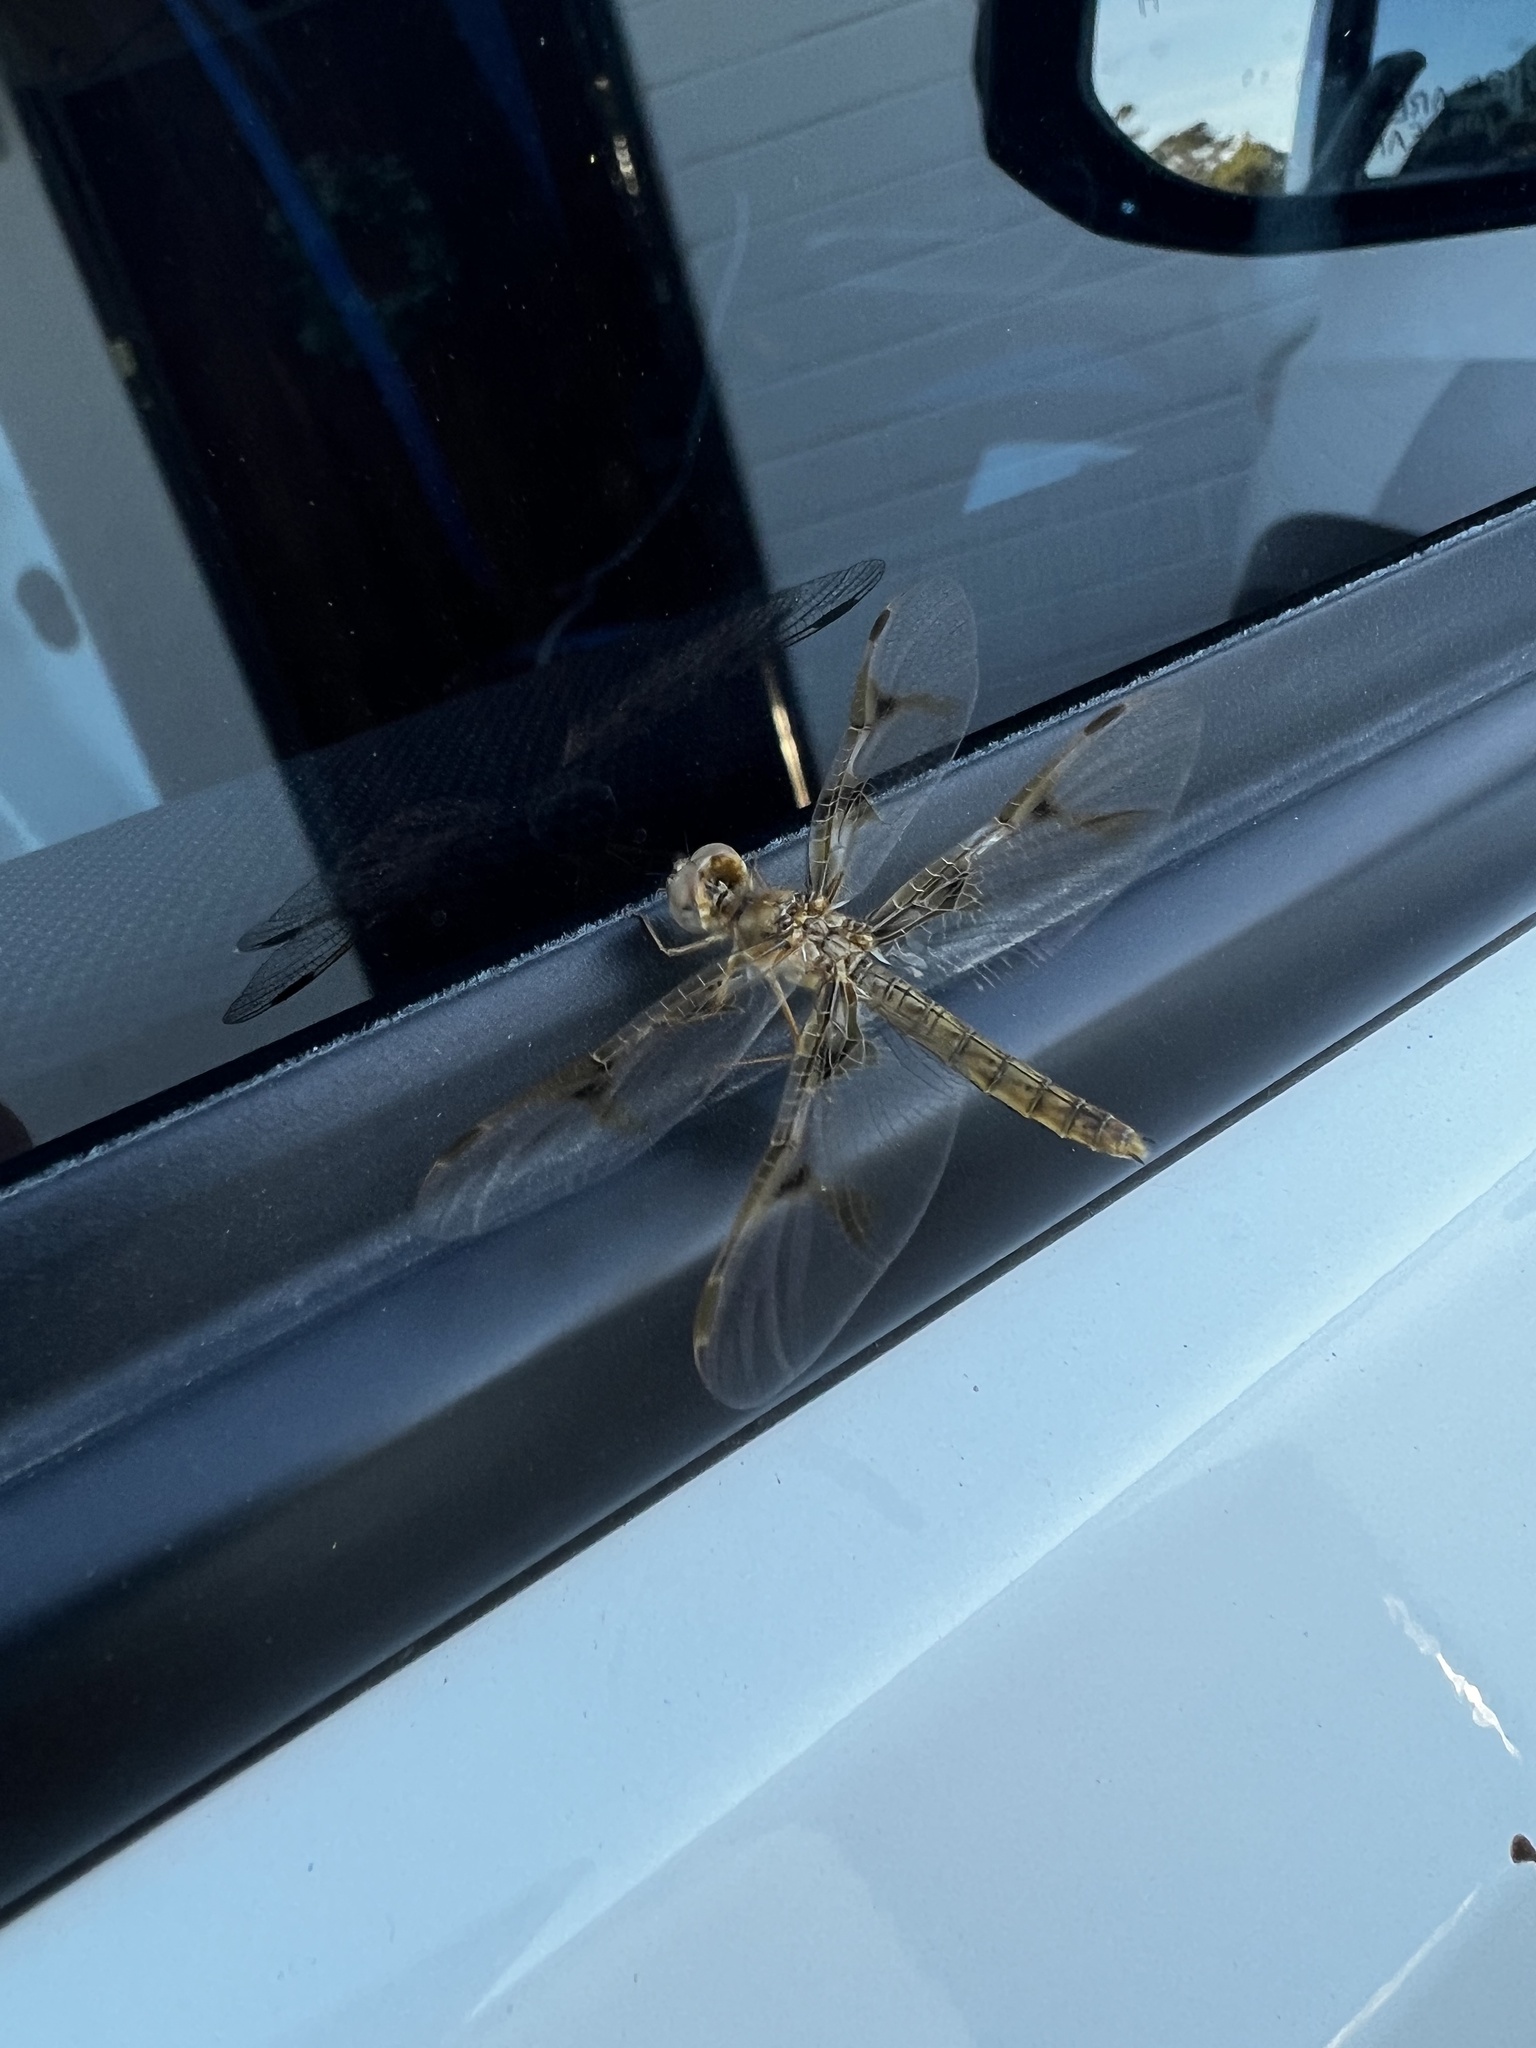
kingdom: Animalia
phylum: Arthropoda
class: Insecta
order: Odonata
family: Libellulidae
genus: Perithemis
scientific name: Perithemis intensa
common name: Mexican amberwing
